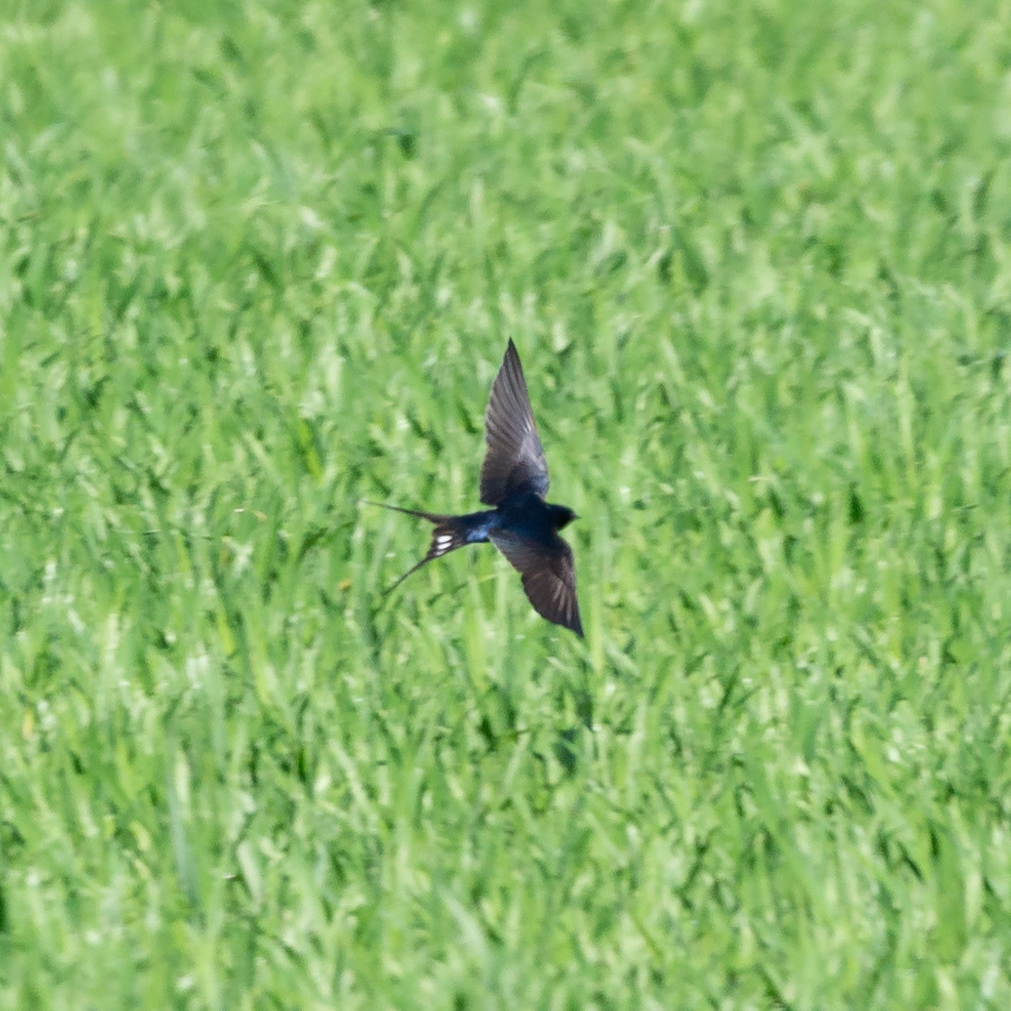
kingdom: Animalia
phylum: Chordata
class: Aves
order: Passeriformes
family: Hirundinidae
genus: Hirundo
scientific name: Hirundo rustica
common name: Barn swallow
